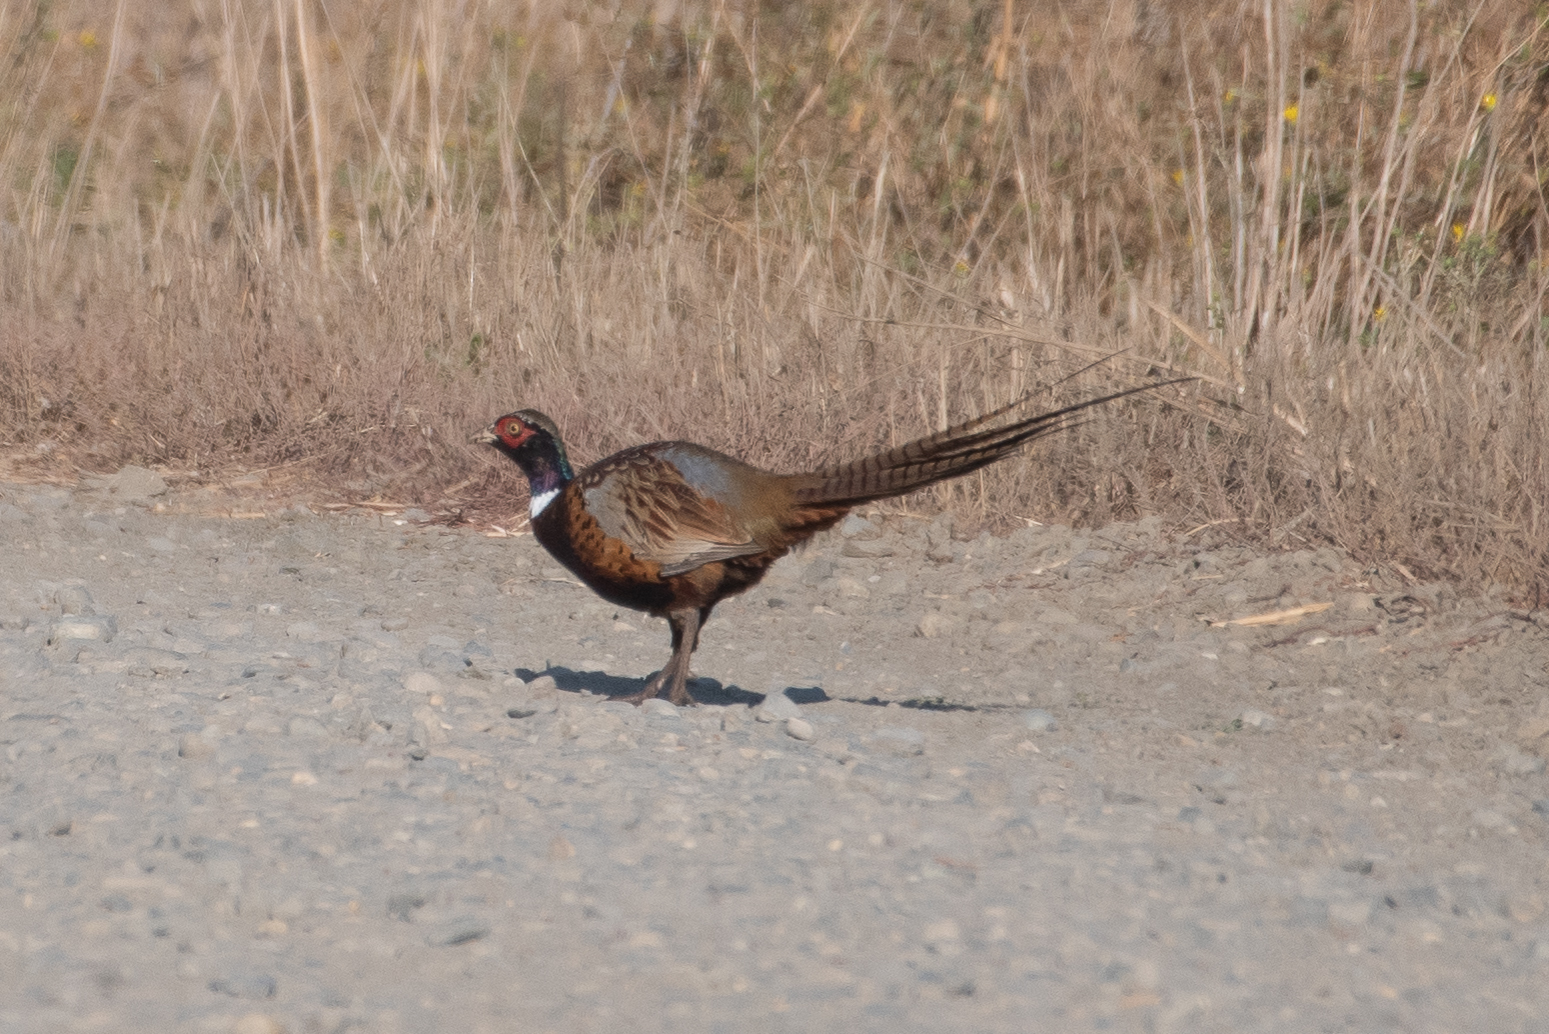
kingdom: Animalia
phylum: Chordata
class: Aves
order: Galliformes
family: Phasianidae
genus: Phasianus
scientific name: Phasianus colchicus
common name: Common pheasant
